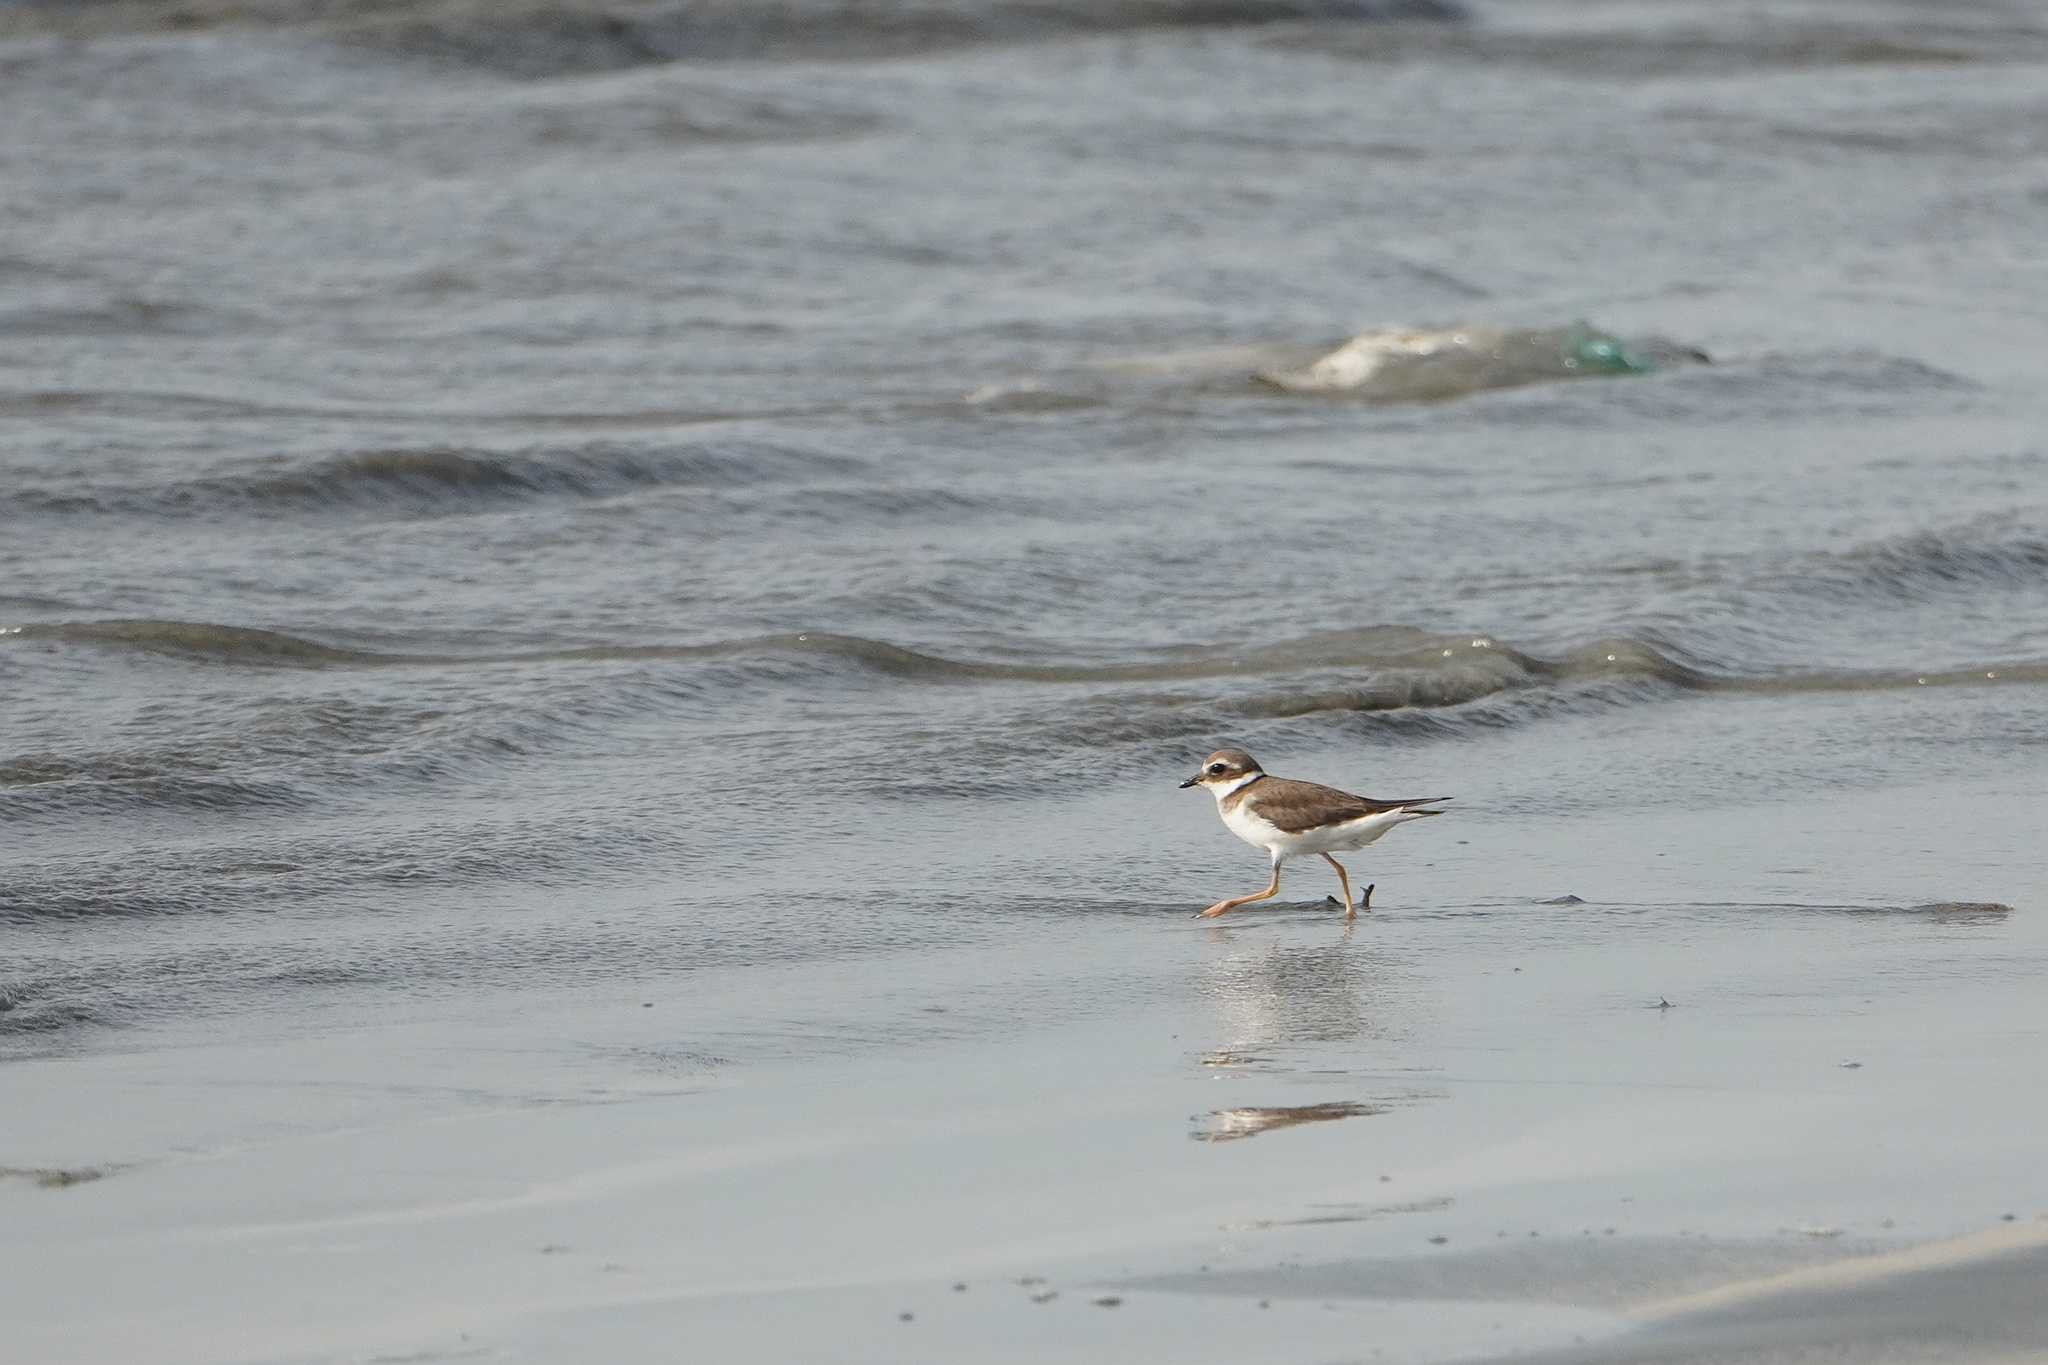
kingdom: Animalia
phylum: Chordata
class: Aves
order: Charadriiformes
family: Charadriidae
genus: Charadrius
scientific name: Charadrius hiaticula
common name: Common ringed plover
